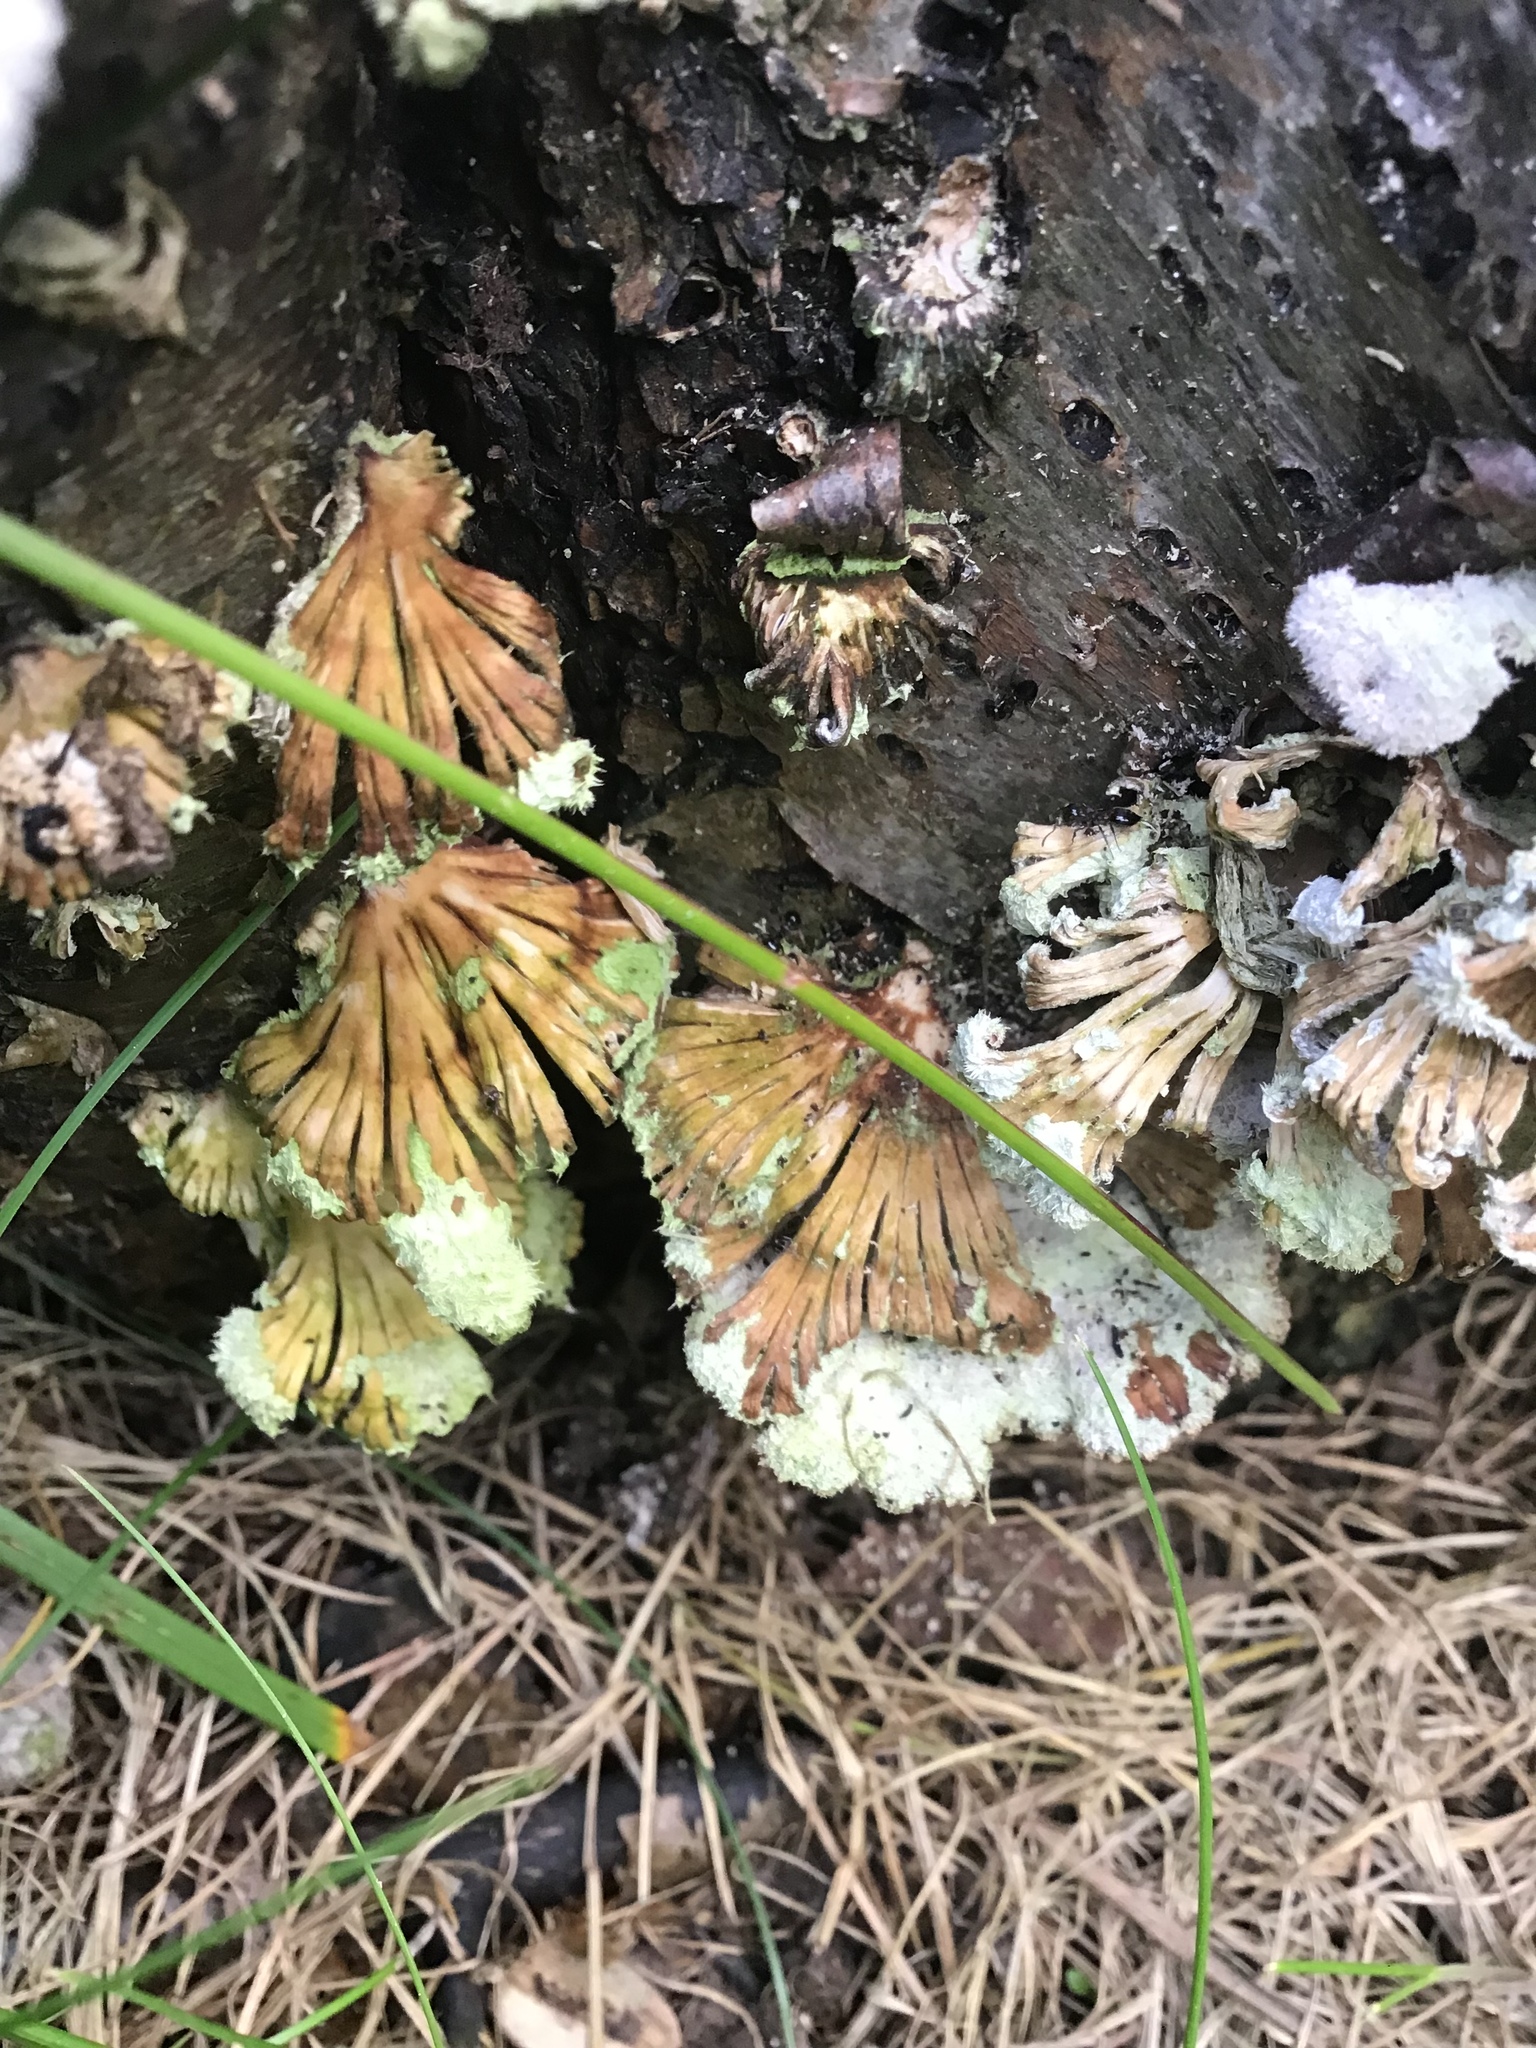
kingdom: Fungi
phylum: Basidiomycota
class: Agaricomycetes
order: Agaricales
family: Schizophyllaceae
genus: Schizophyllum
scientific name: Schizophyllum commune
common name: Common porecrust
